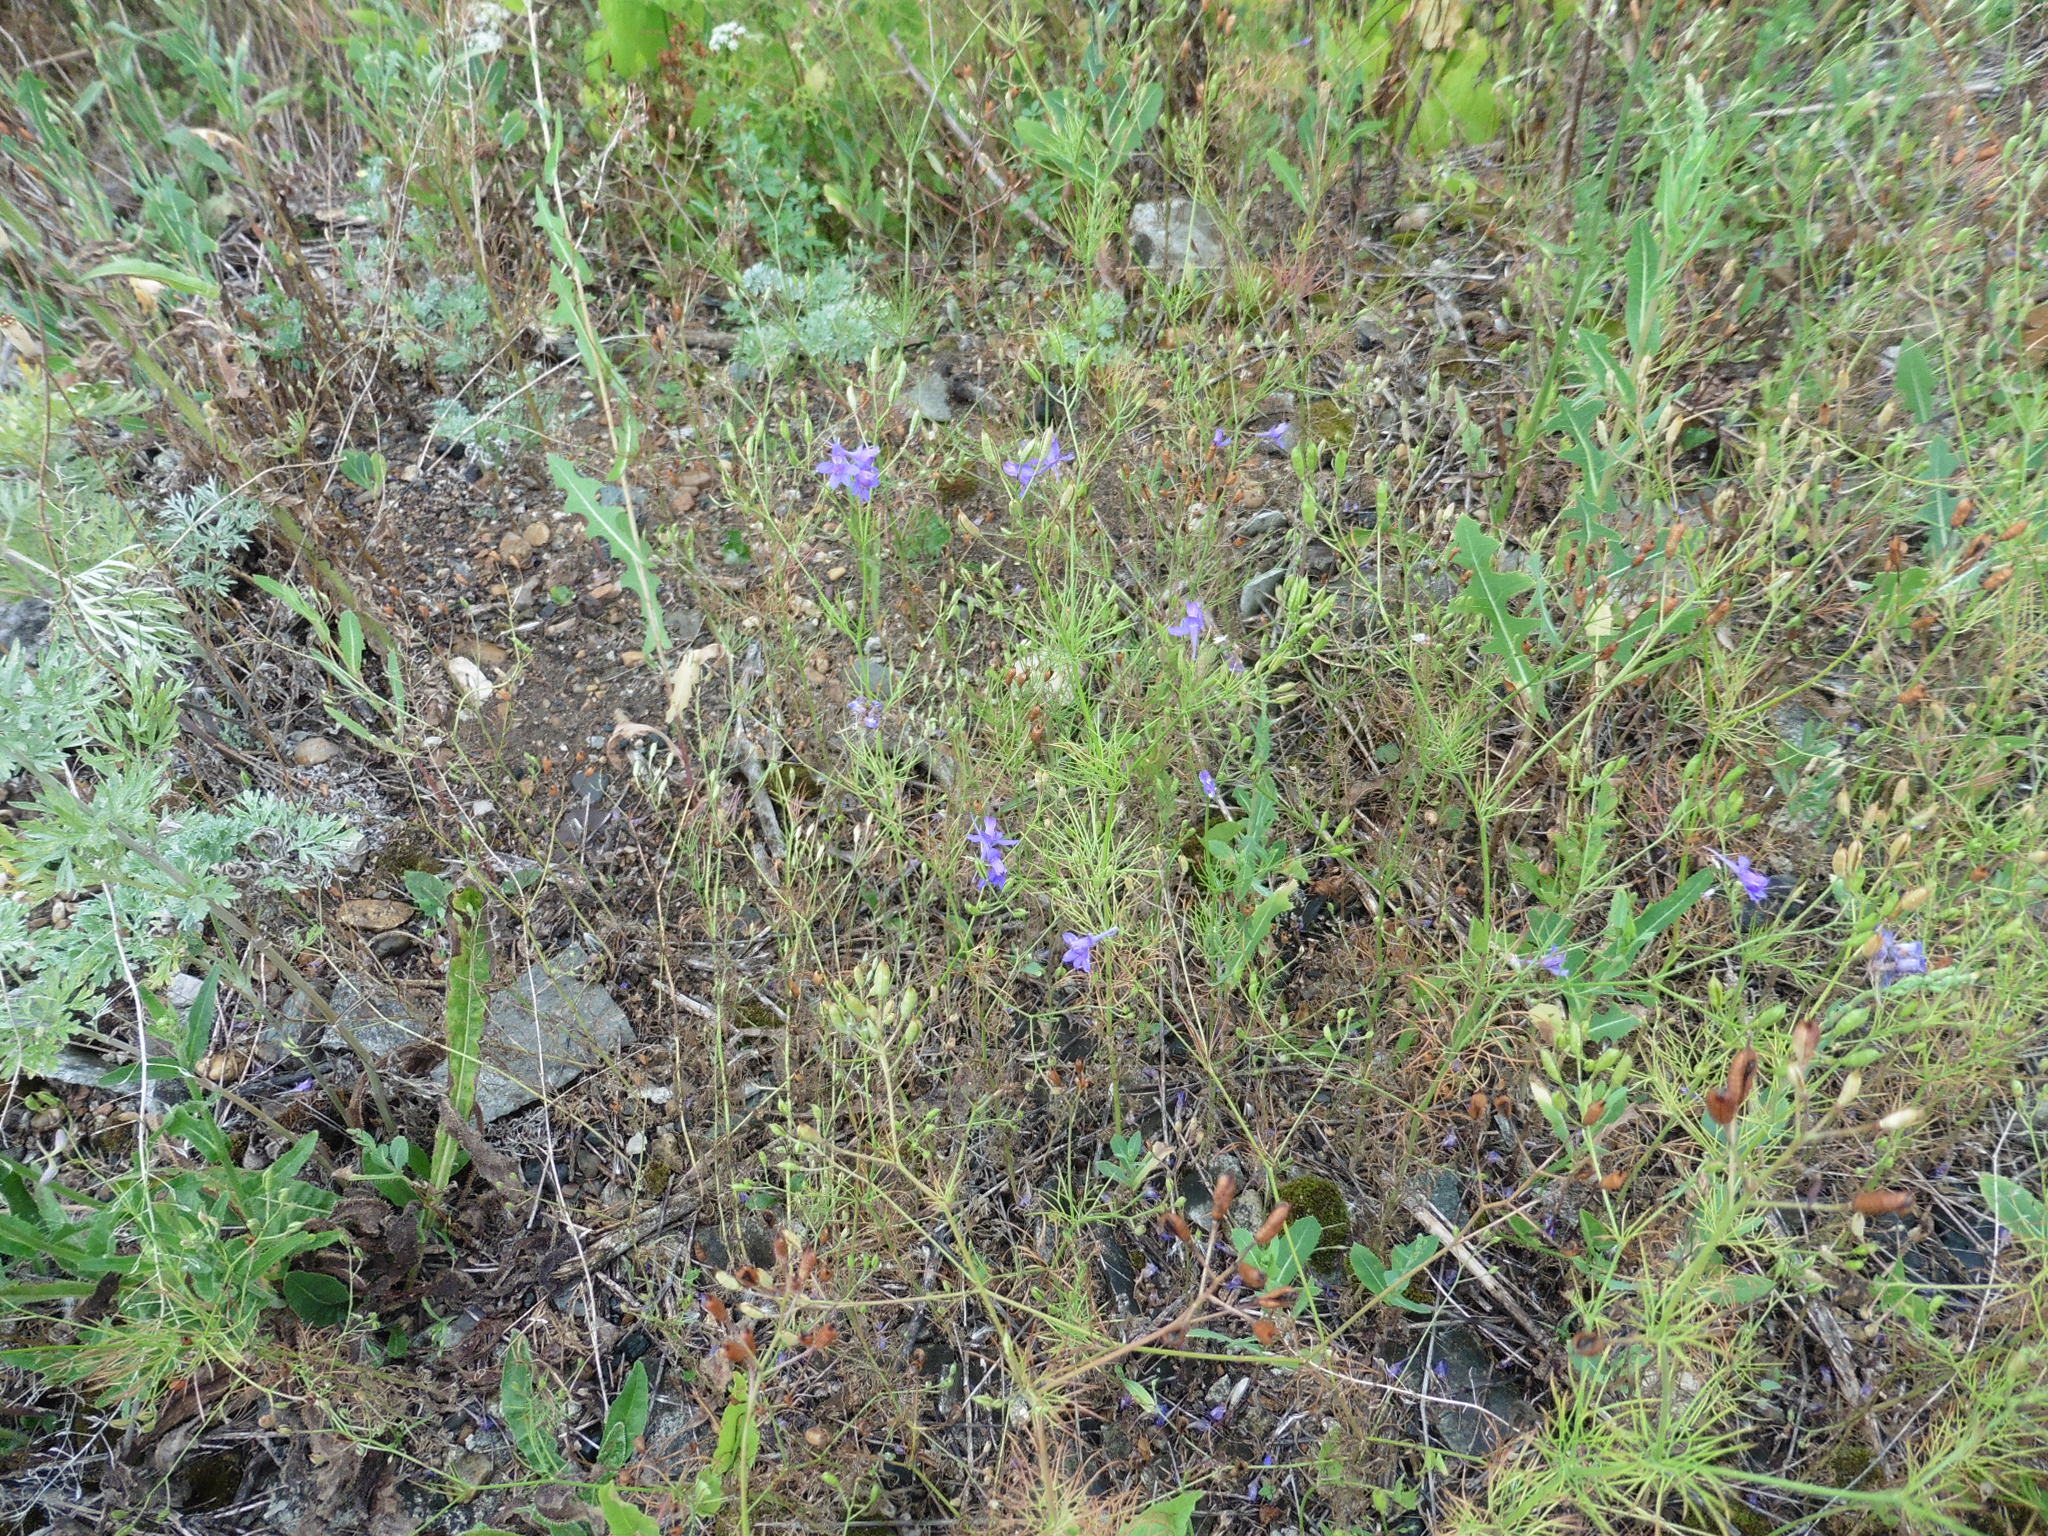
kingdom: Plantae
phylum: Tracheophyta
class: Magnoliopsida
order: Ranunculales
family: Ranunculaceae
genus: Delphinium
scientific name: Delphinium consolida
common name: Branching larkspur
